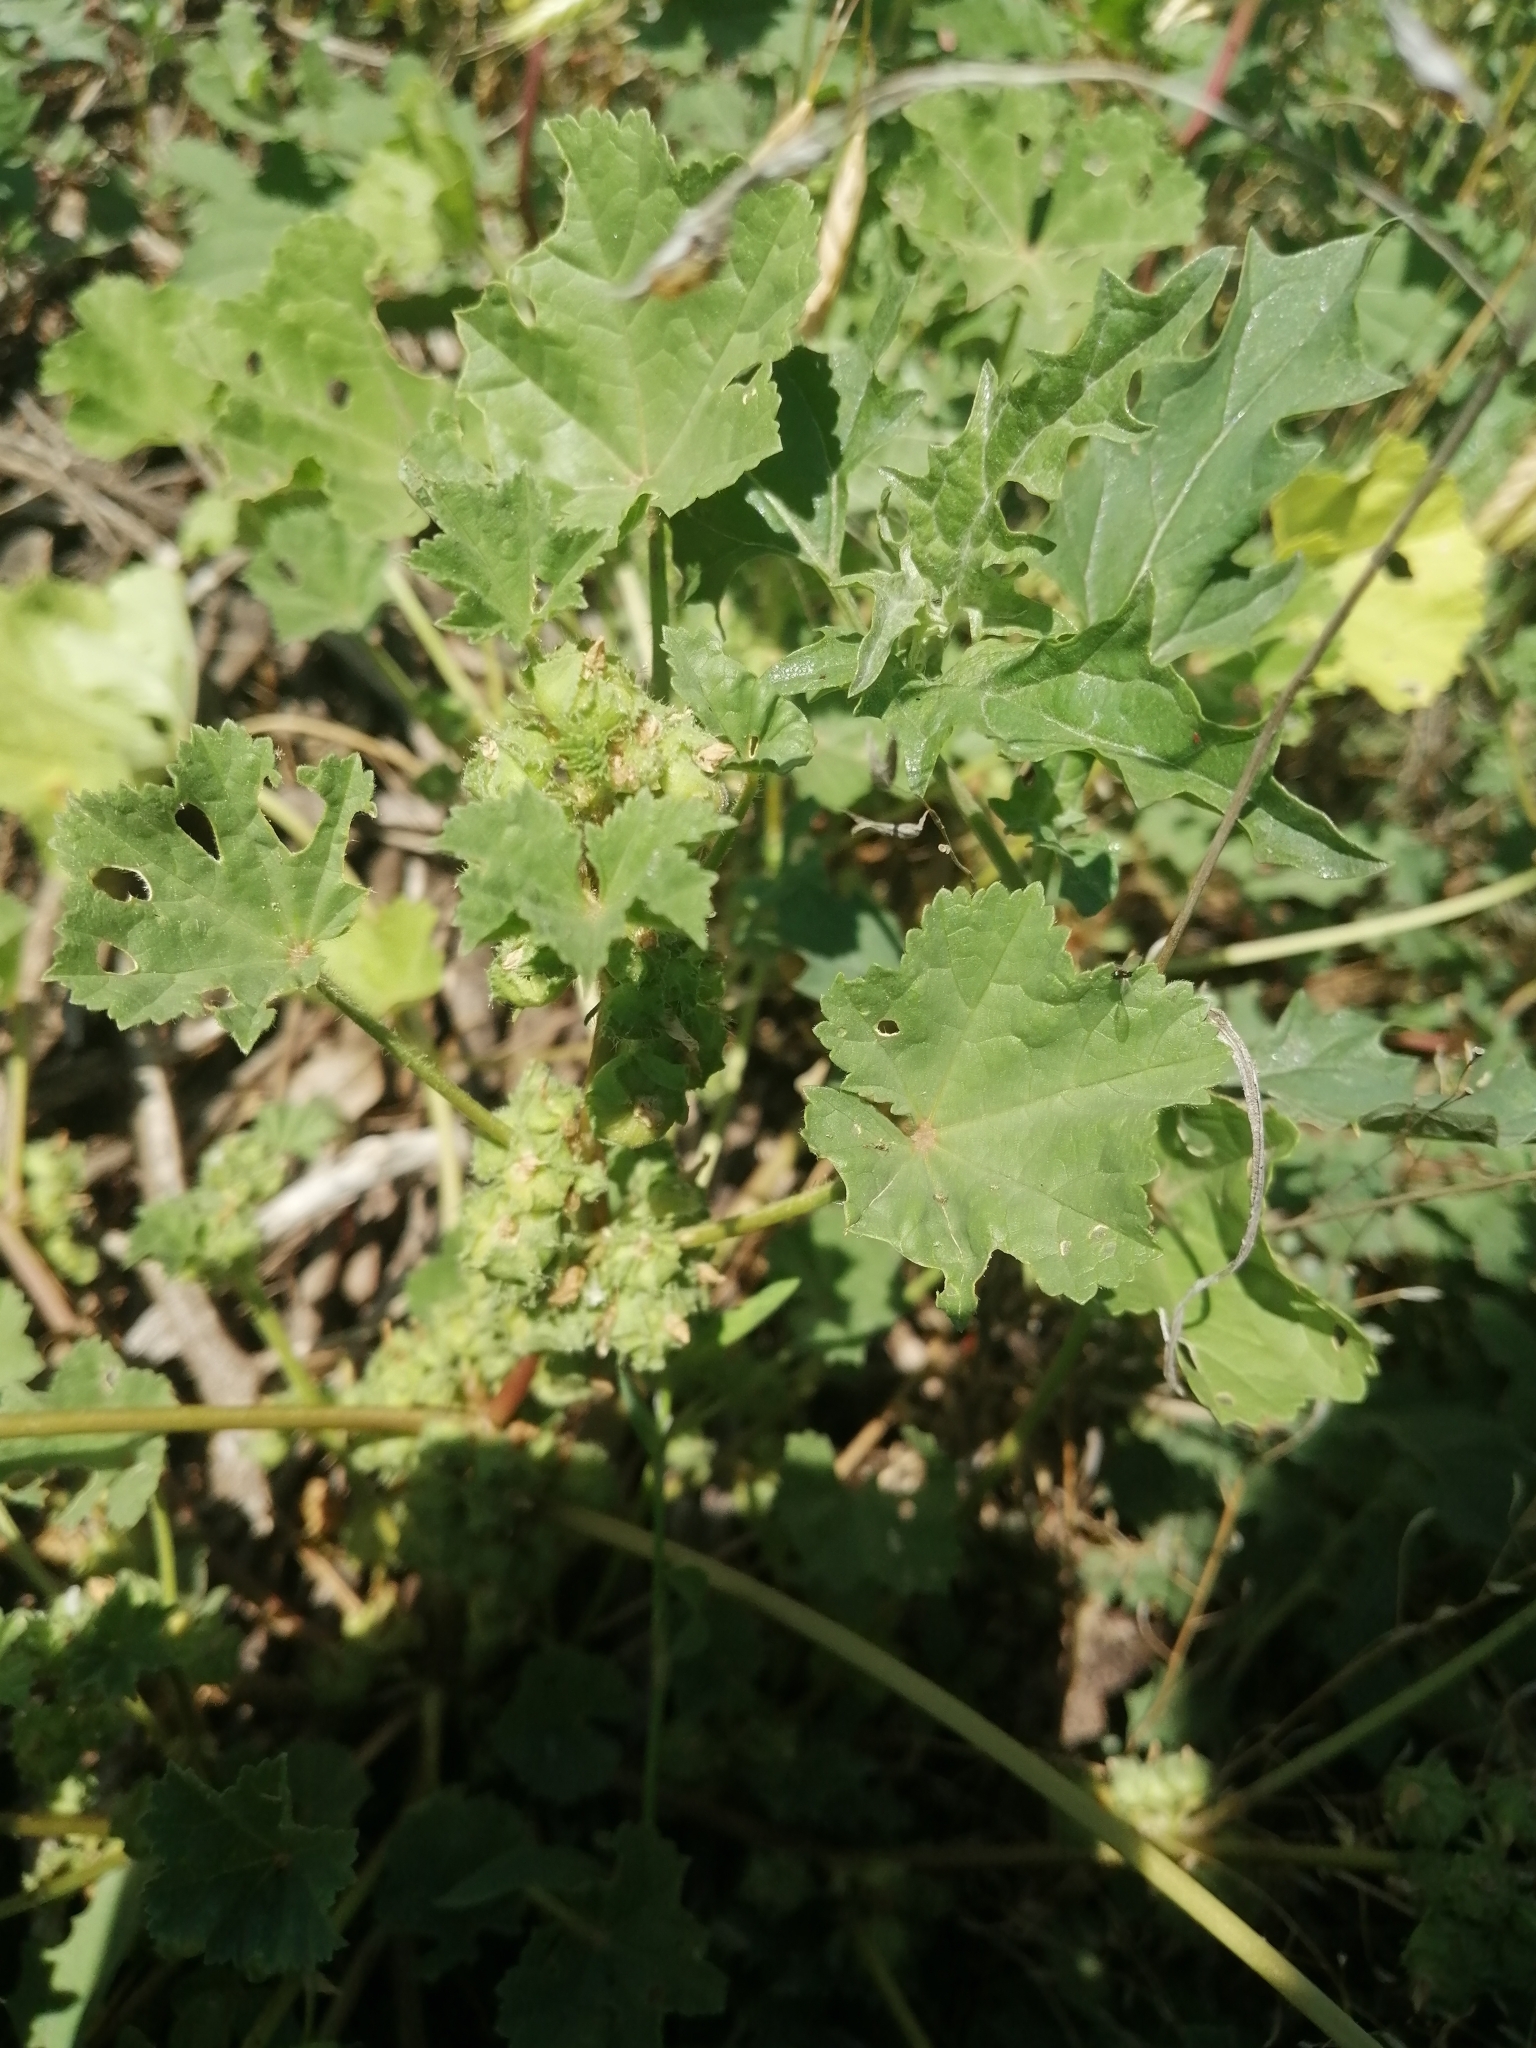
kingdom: Plantae
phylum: Tracheophyta
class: Magnoliopsida
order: Malvales
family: Malvaceae
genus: Malva
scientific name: Malva pusilla
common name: Small mallow
